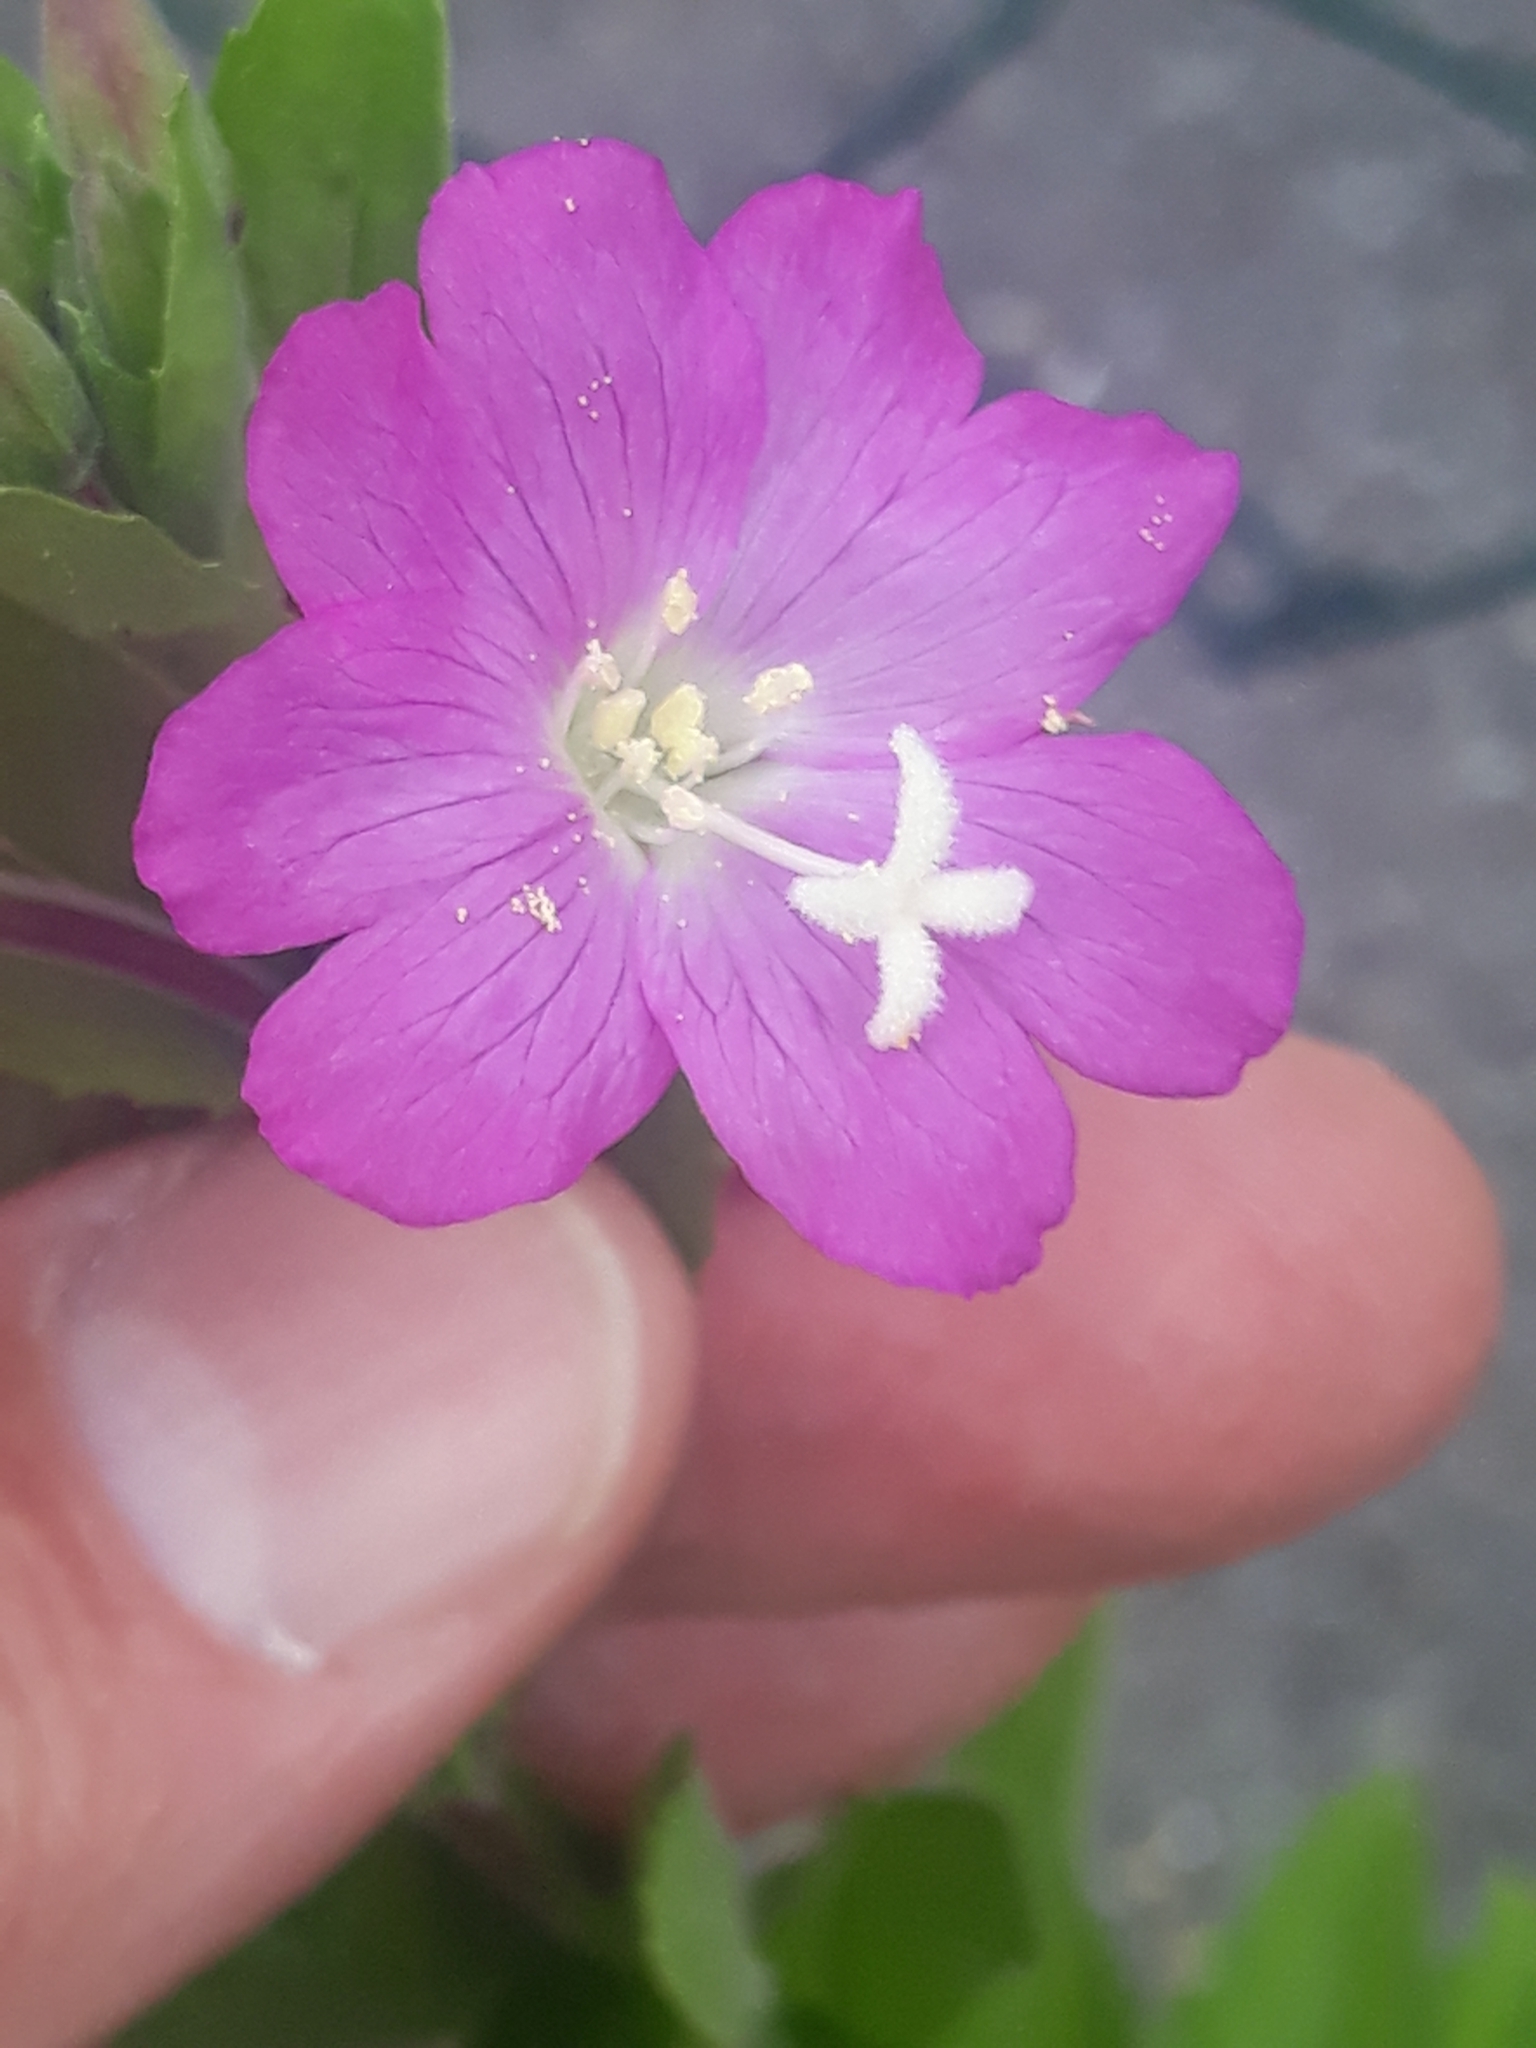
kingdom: Plantae
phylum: Tracheophyta
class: Magnoliopsida
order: Myrtales
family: Onagraceae
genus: Epilobium
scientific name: Epilobium hirsutum
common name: Great willowherb
